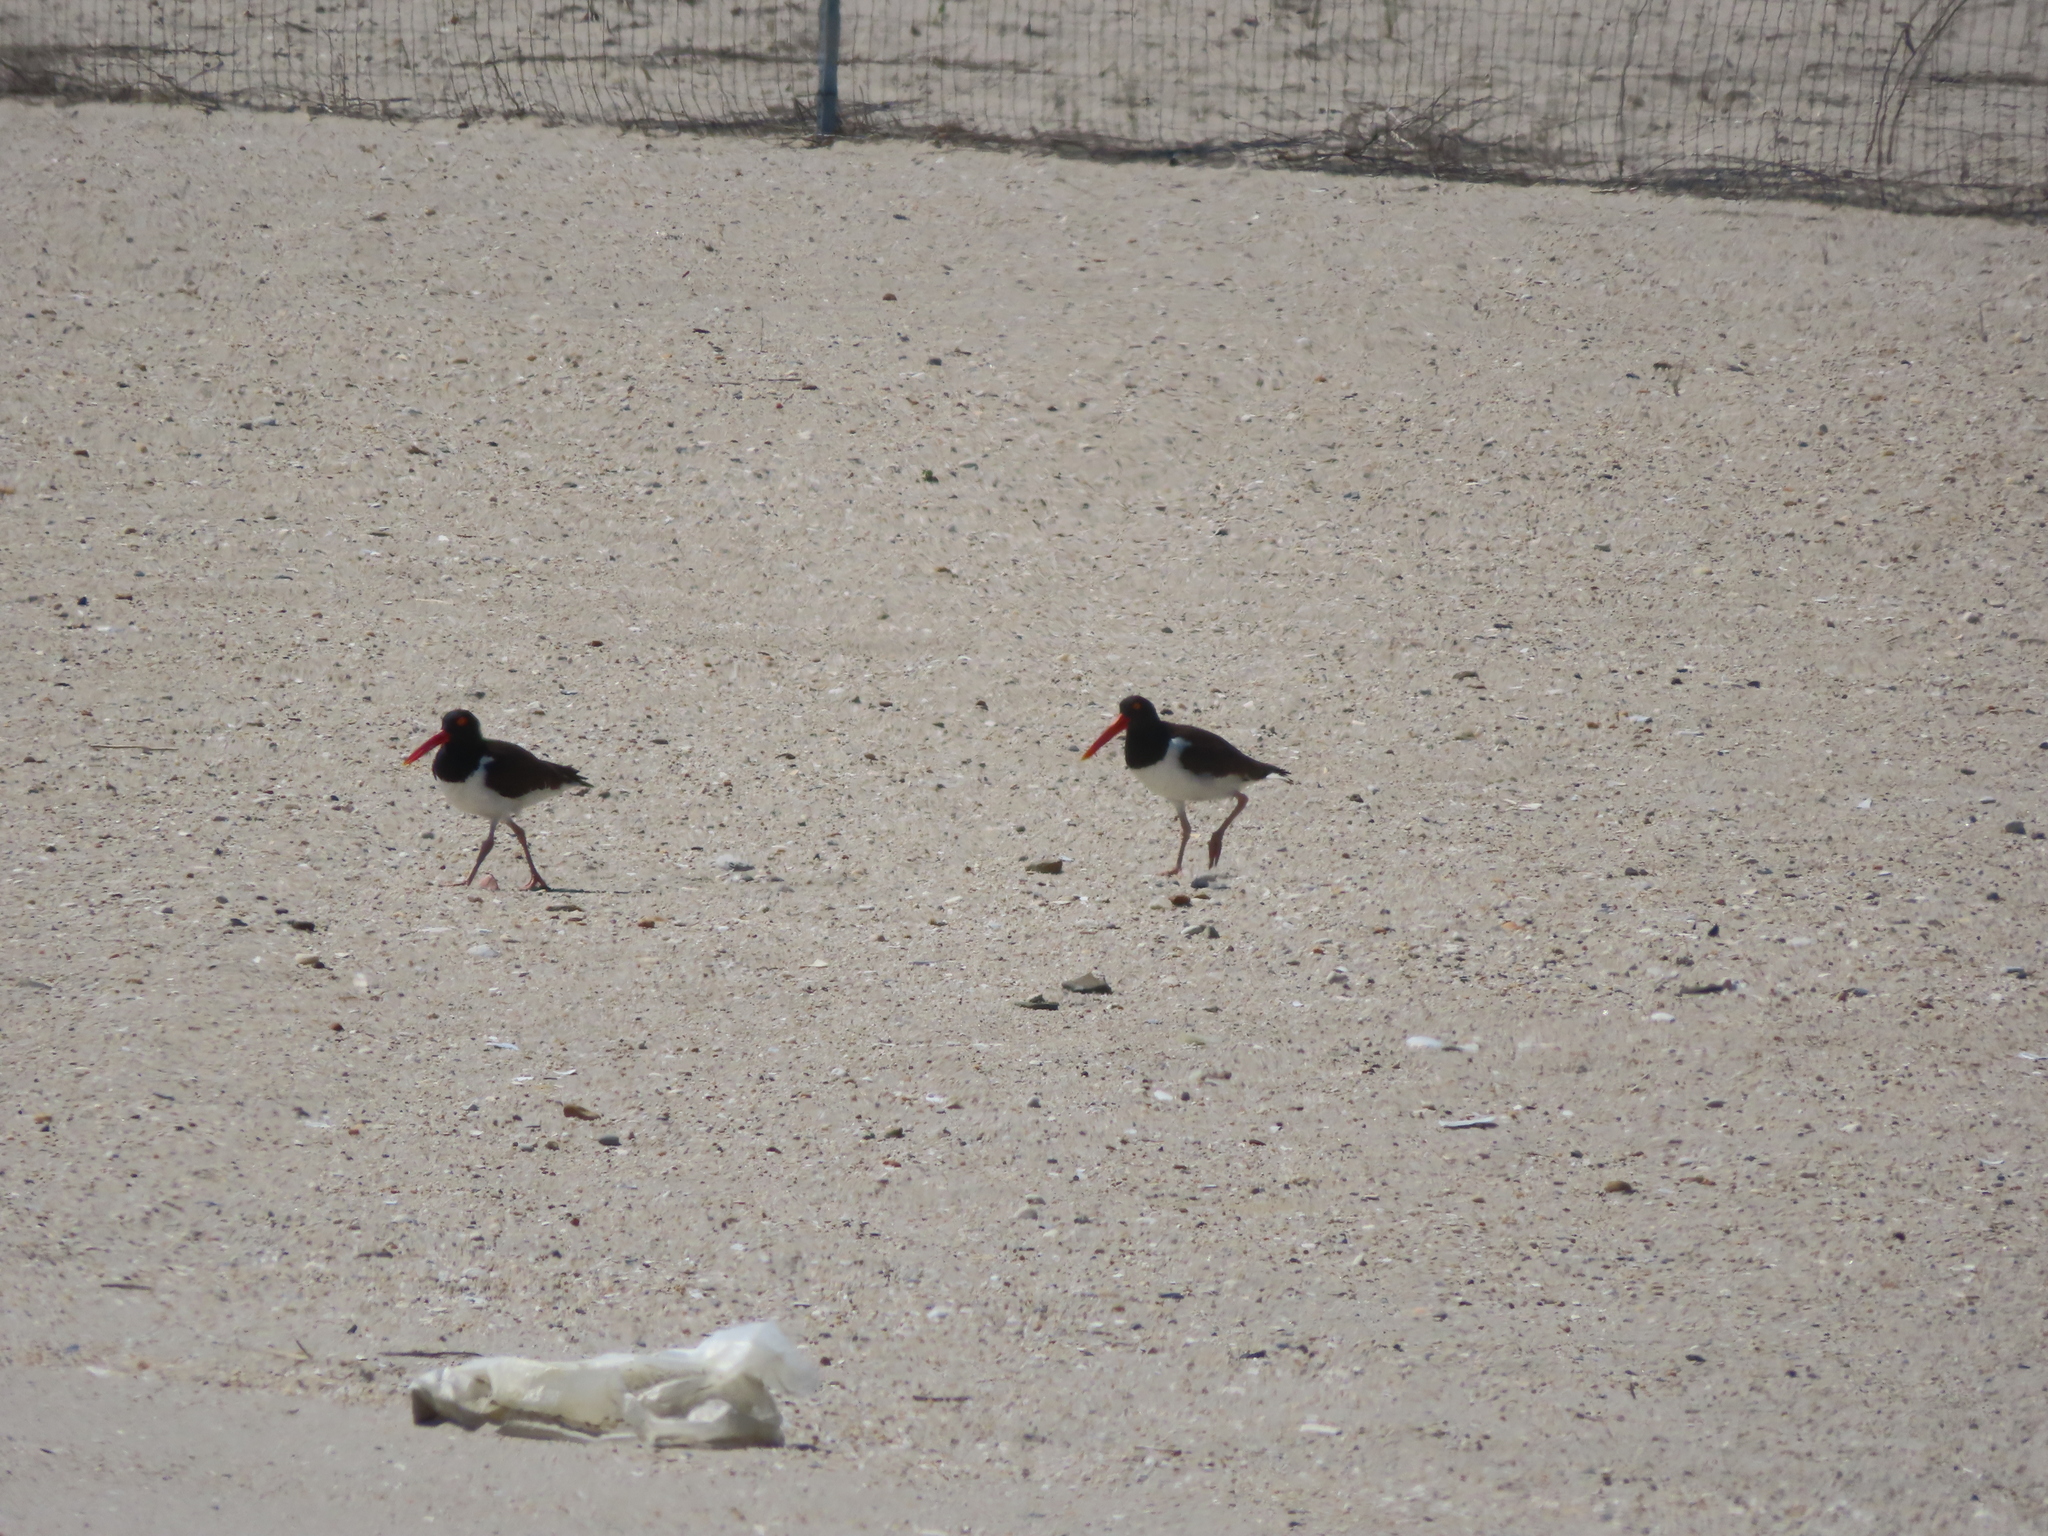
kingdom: Animalia
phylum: Chordata
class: Aves
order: Charadriiformes
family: Haematopodidae
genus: Haematopus
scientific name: Haematopus palliatus
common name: American oystercatcher
